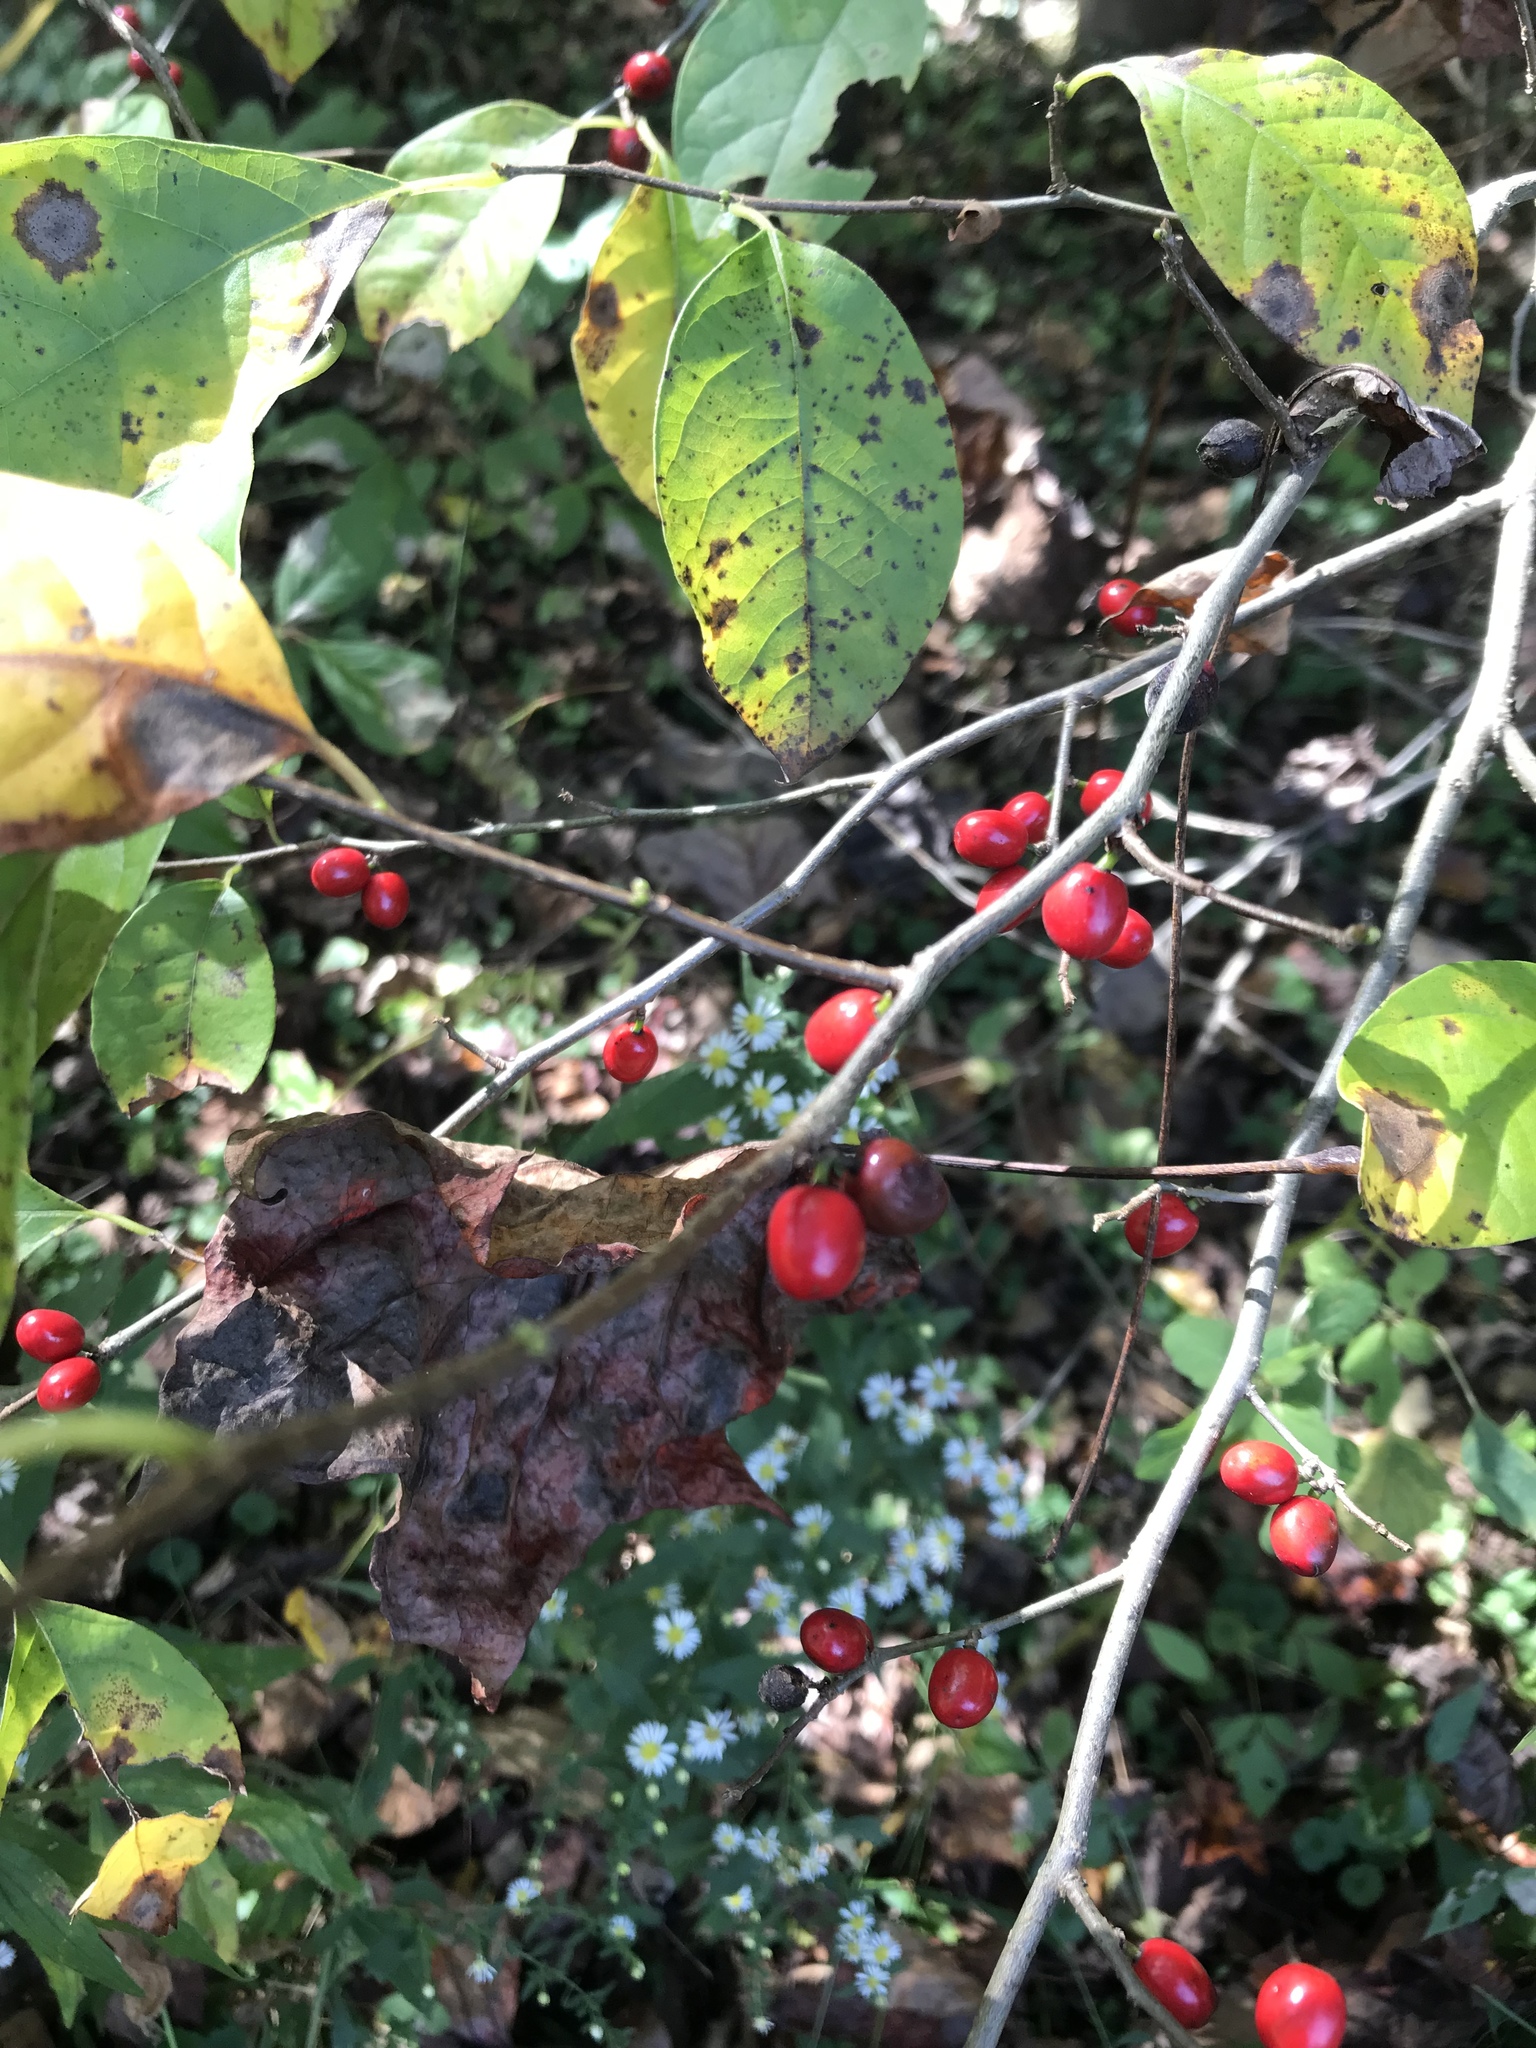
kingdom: Plantae
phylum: Tracheophyta
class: Magnoliopsida
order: Laurales
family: Lauraceae
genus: Lindera
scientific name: Lindera benzoin
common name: Spicebush
